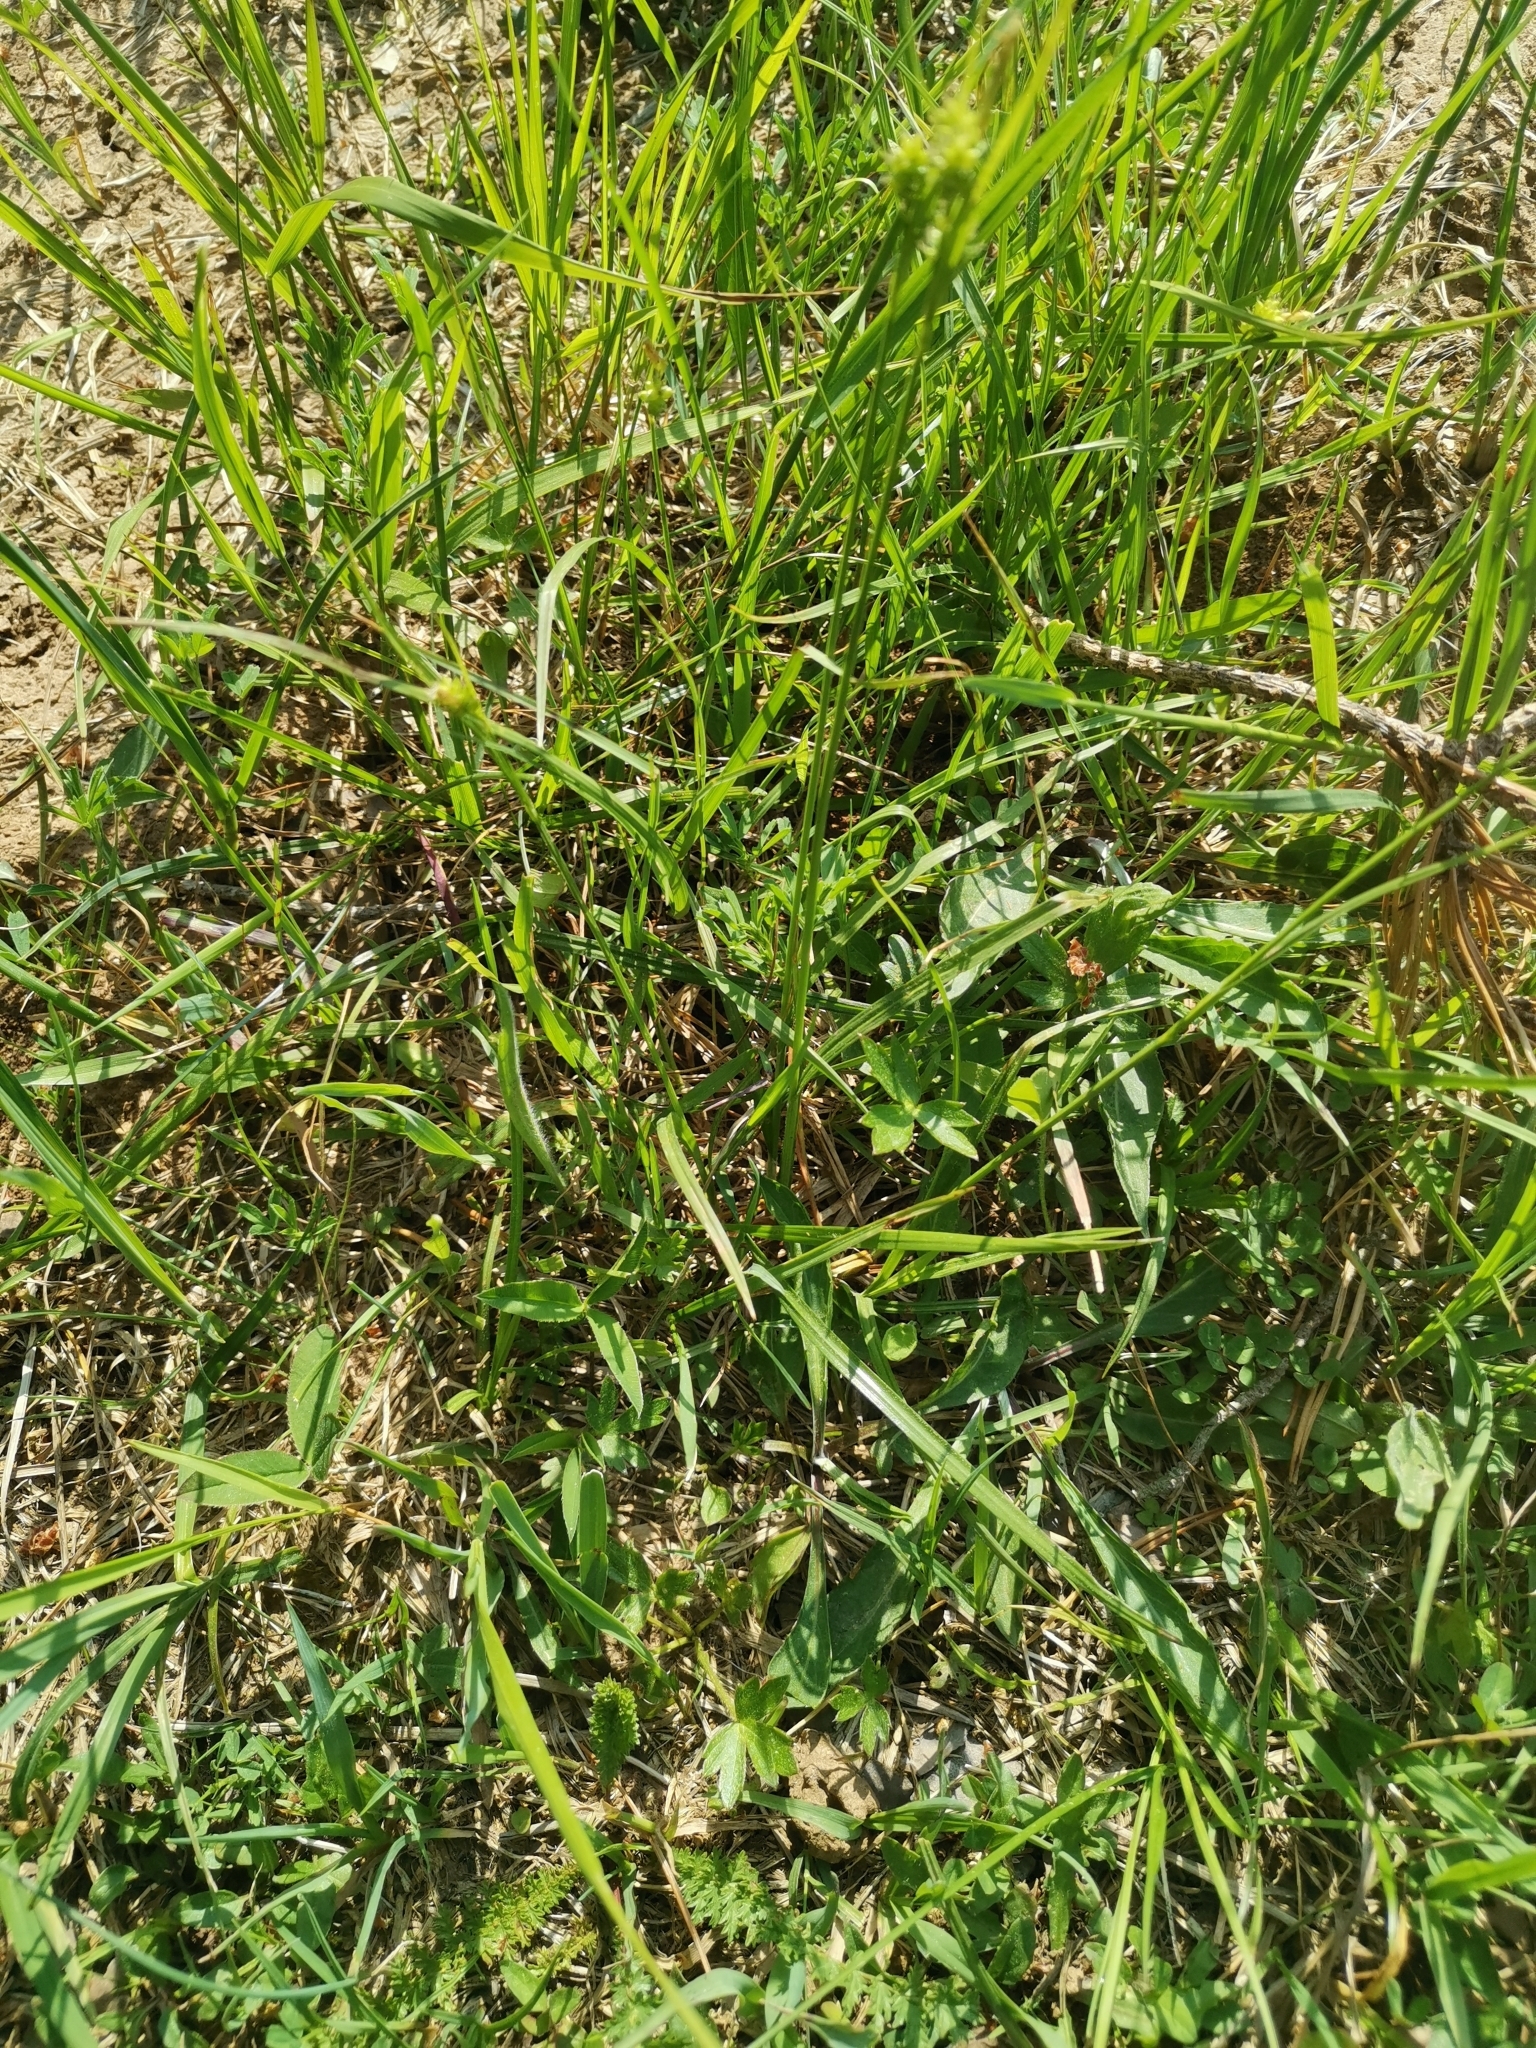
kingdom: Plantae
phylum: Tracheophyta
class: Liliopsida
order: Poales
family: Cyperaceae
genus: Carex
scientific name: Carex pallescens
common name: Pale sedge
